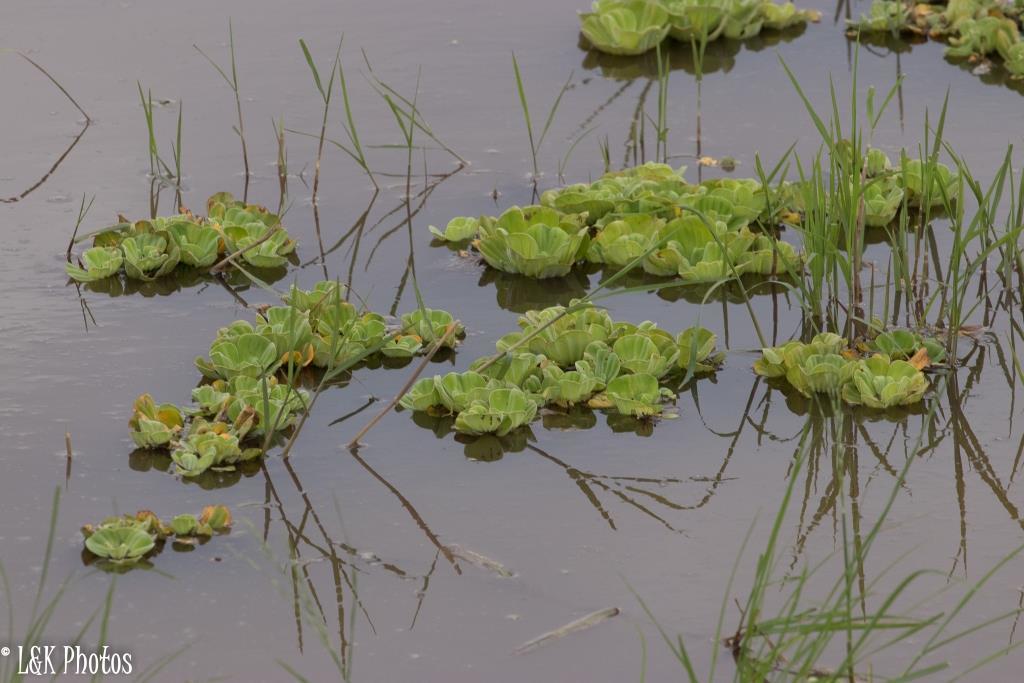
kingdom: Plantae
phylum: Tracheophyta
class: Liliopsida
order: Alismatales
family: Araceae
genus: Pistia
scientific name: Pistia stratiotes
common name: Water lettuce
